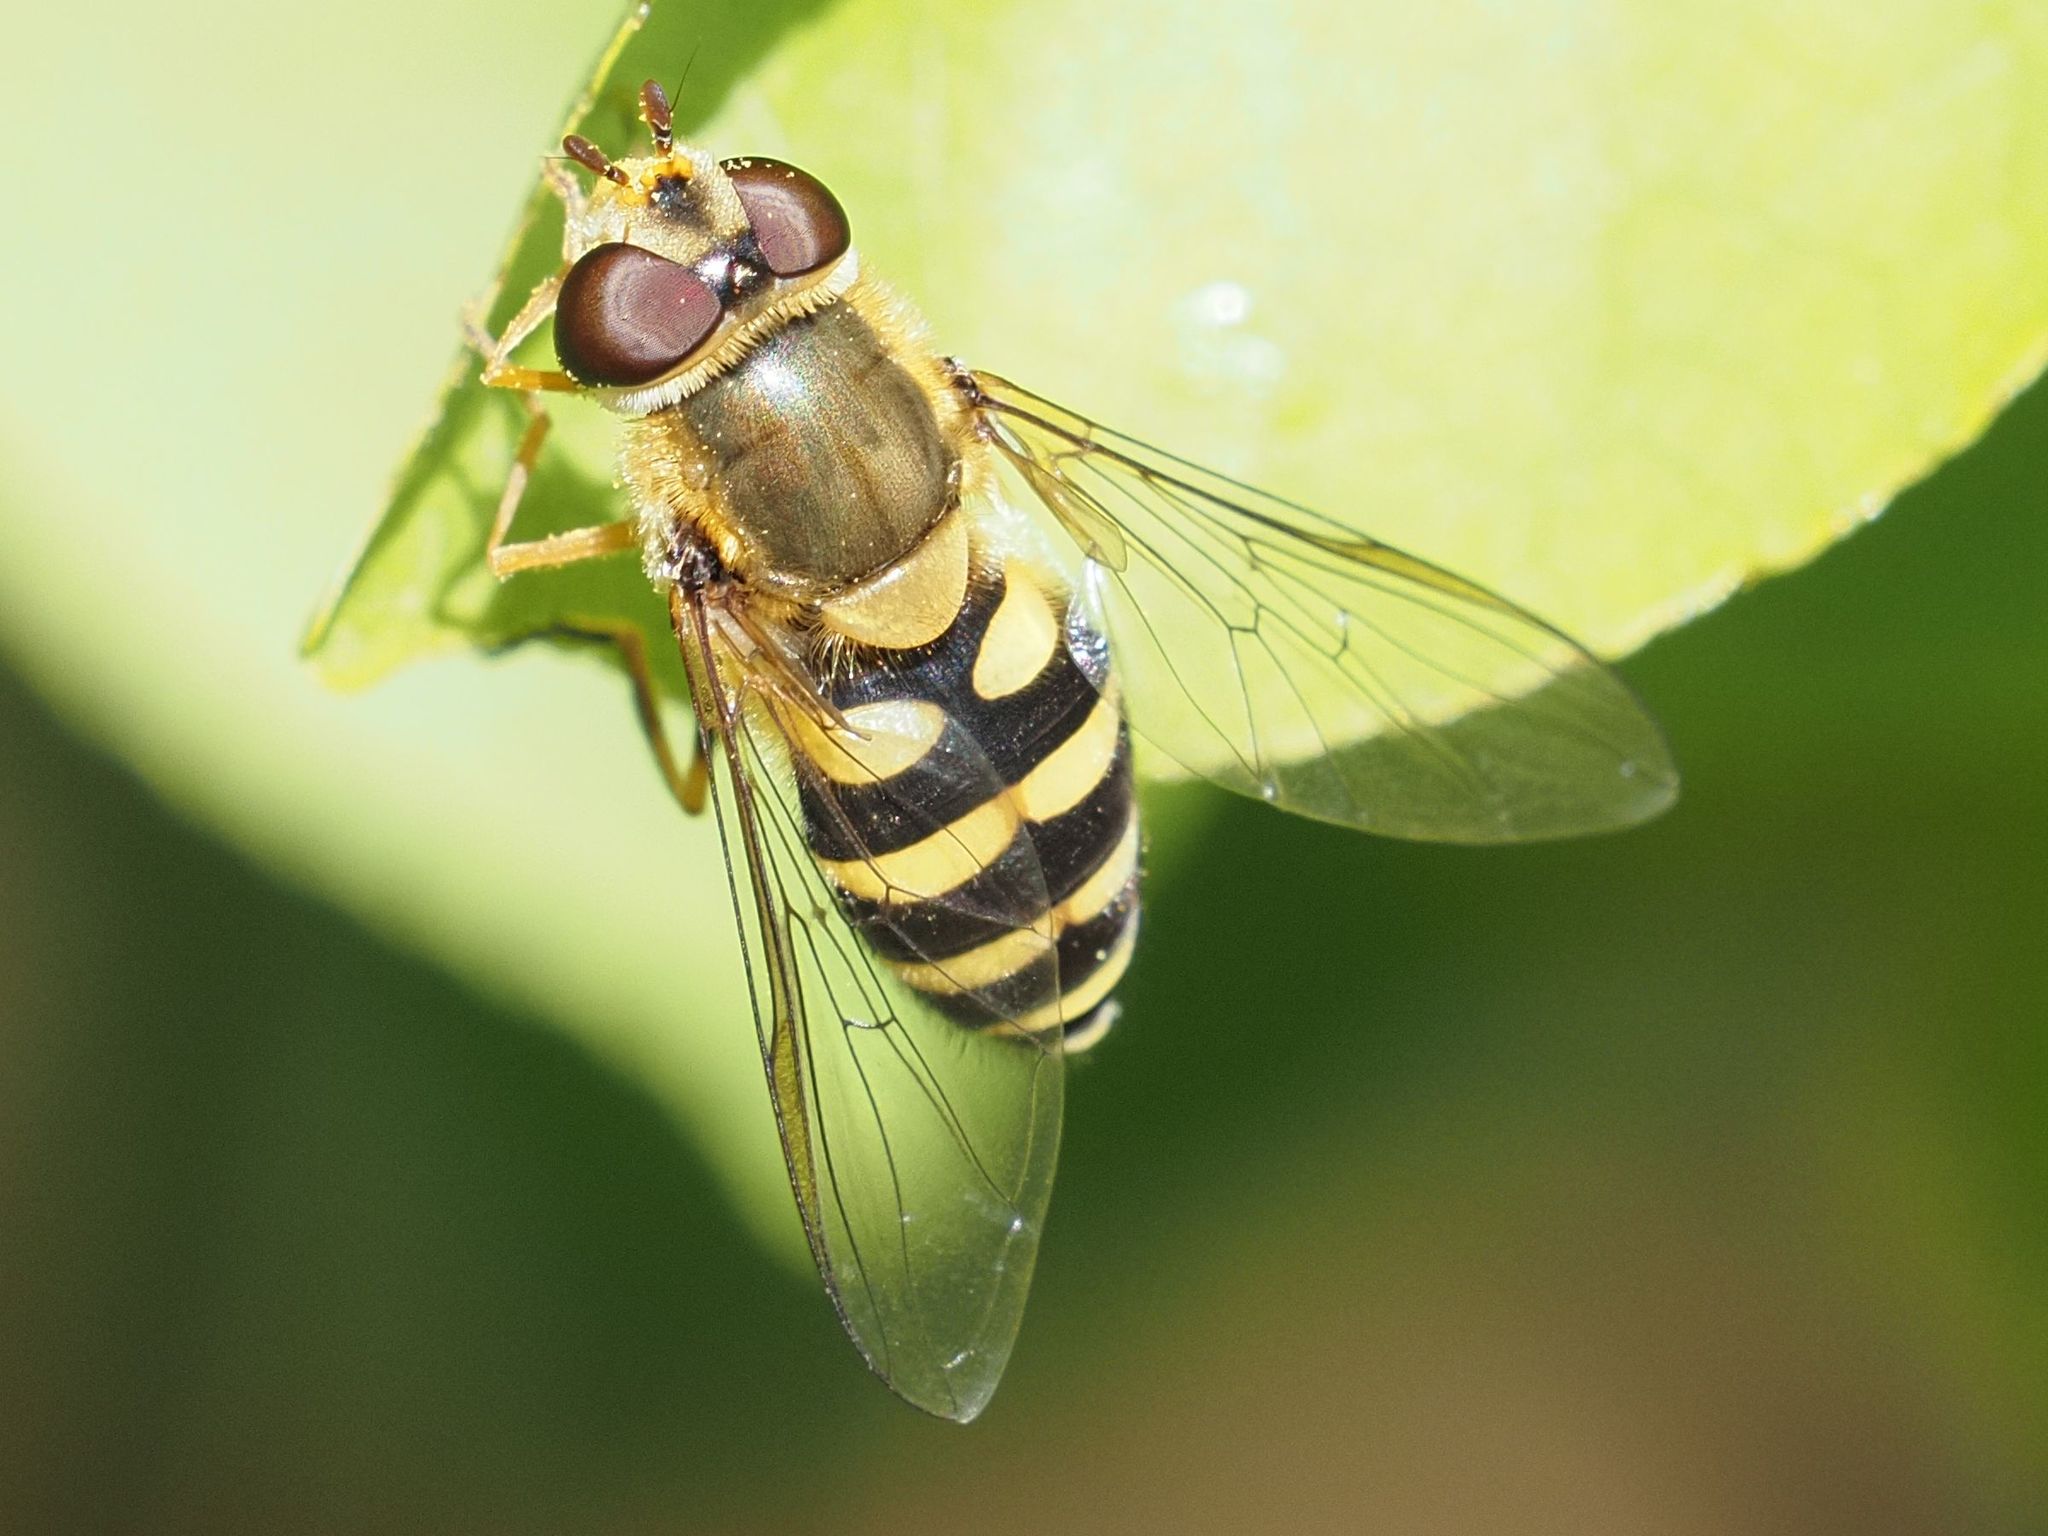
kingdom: Animalia
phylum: Arthropoda
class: Insecta
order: Diptera
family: Syrphidae
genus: Syrphus
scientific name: Syrphus
